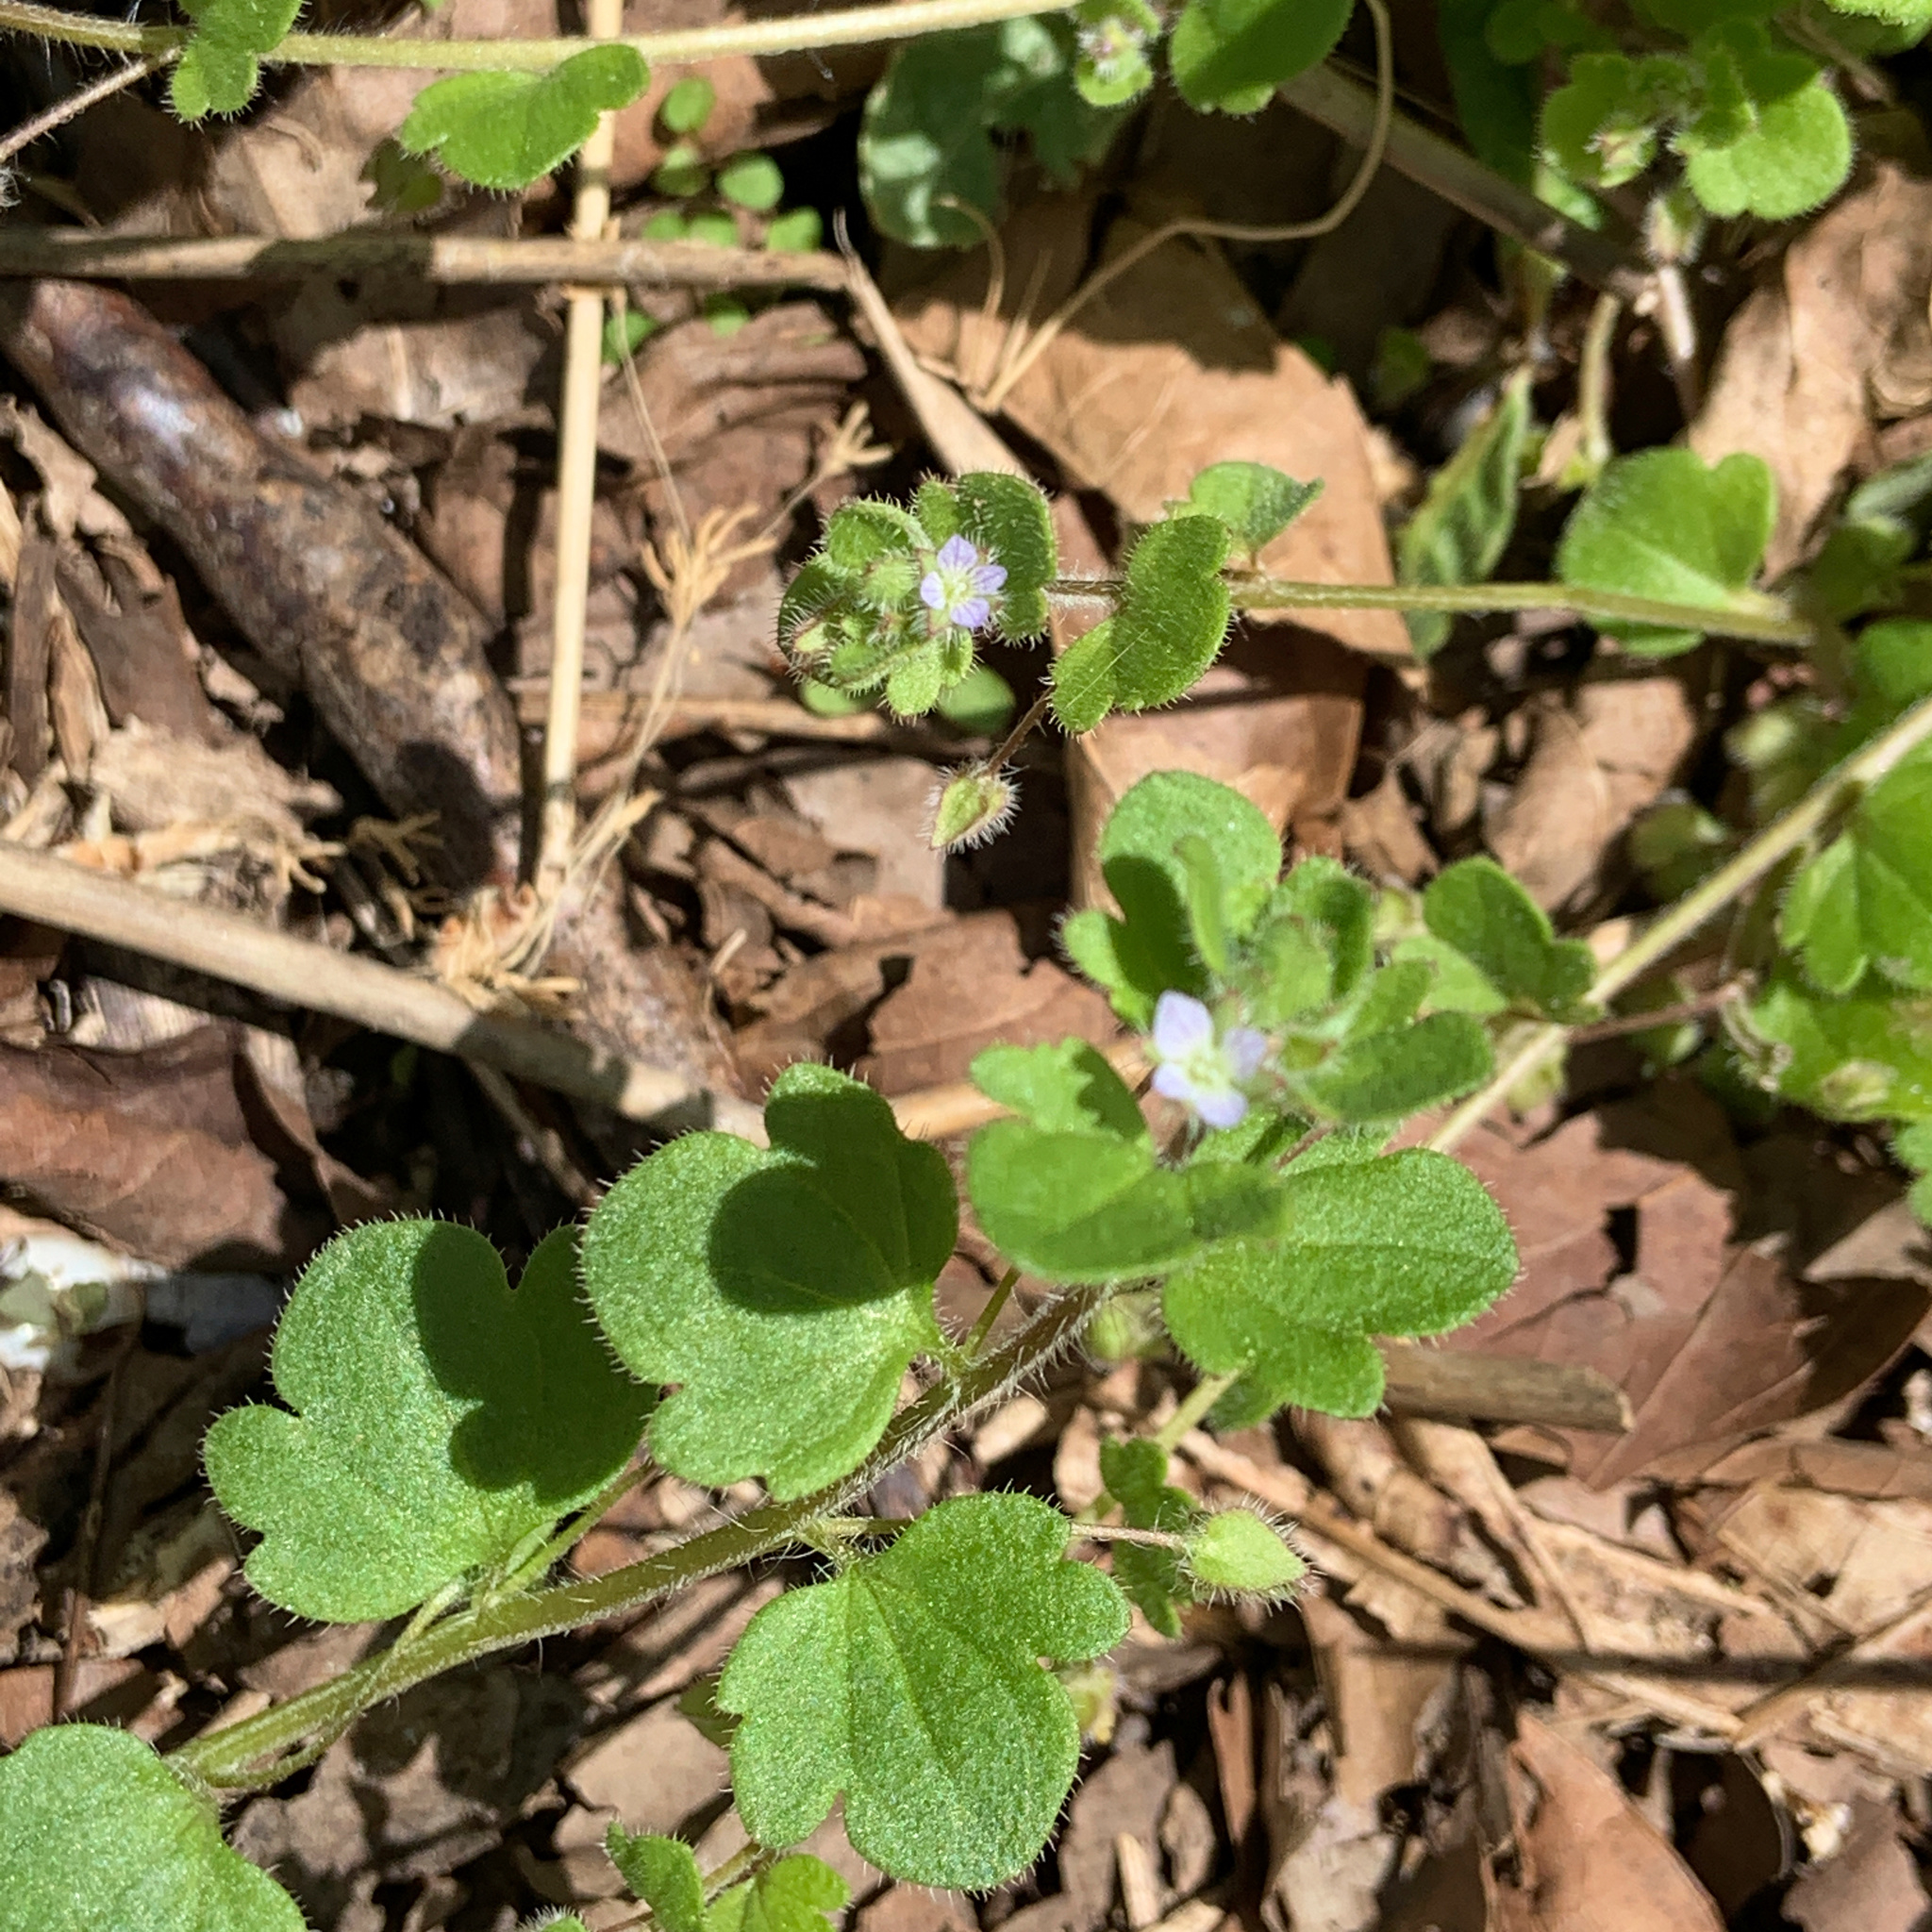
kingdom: Plantae
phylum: Tracheophyta
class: Magnoliopsida
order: Lamiales
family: Plantaginaceae
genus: Veronica
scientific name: Veronica hederifolia
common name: Ivy-leaved speedwell
